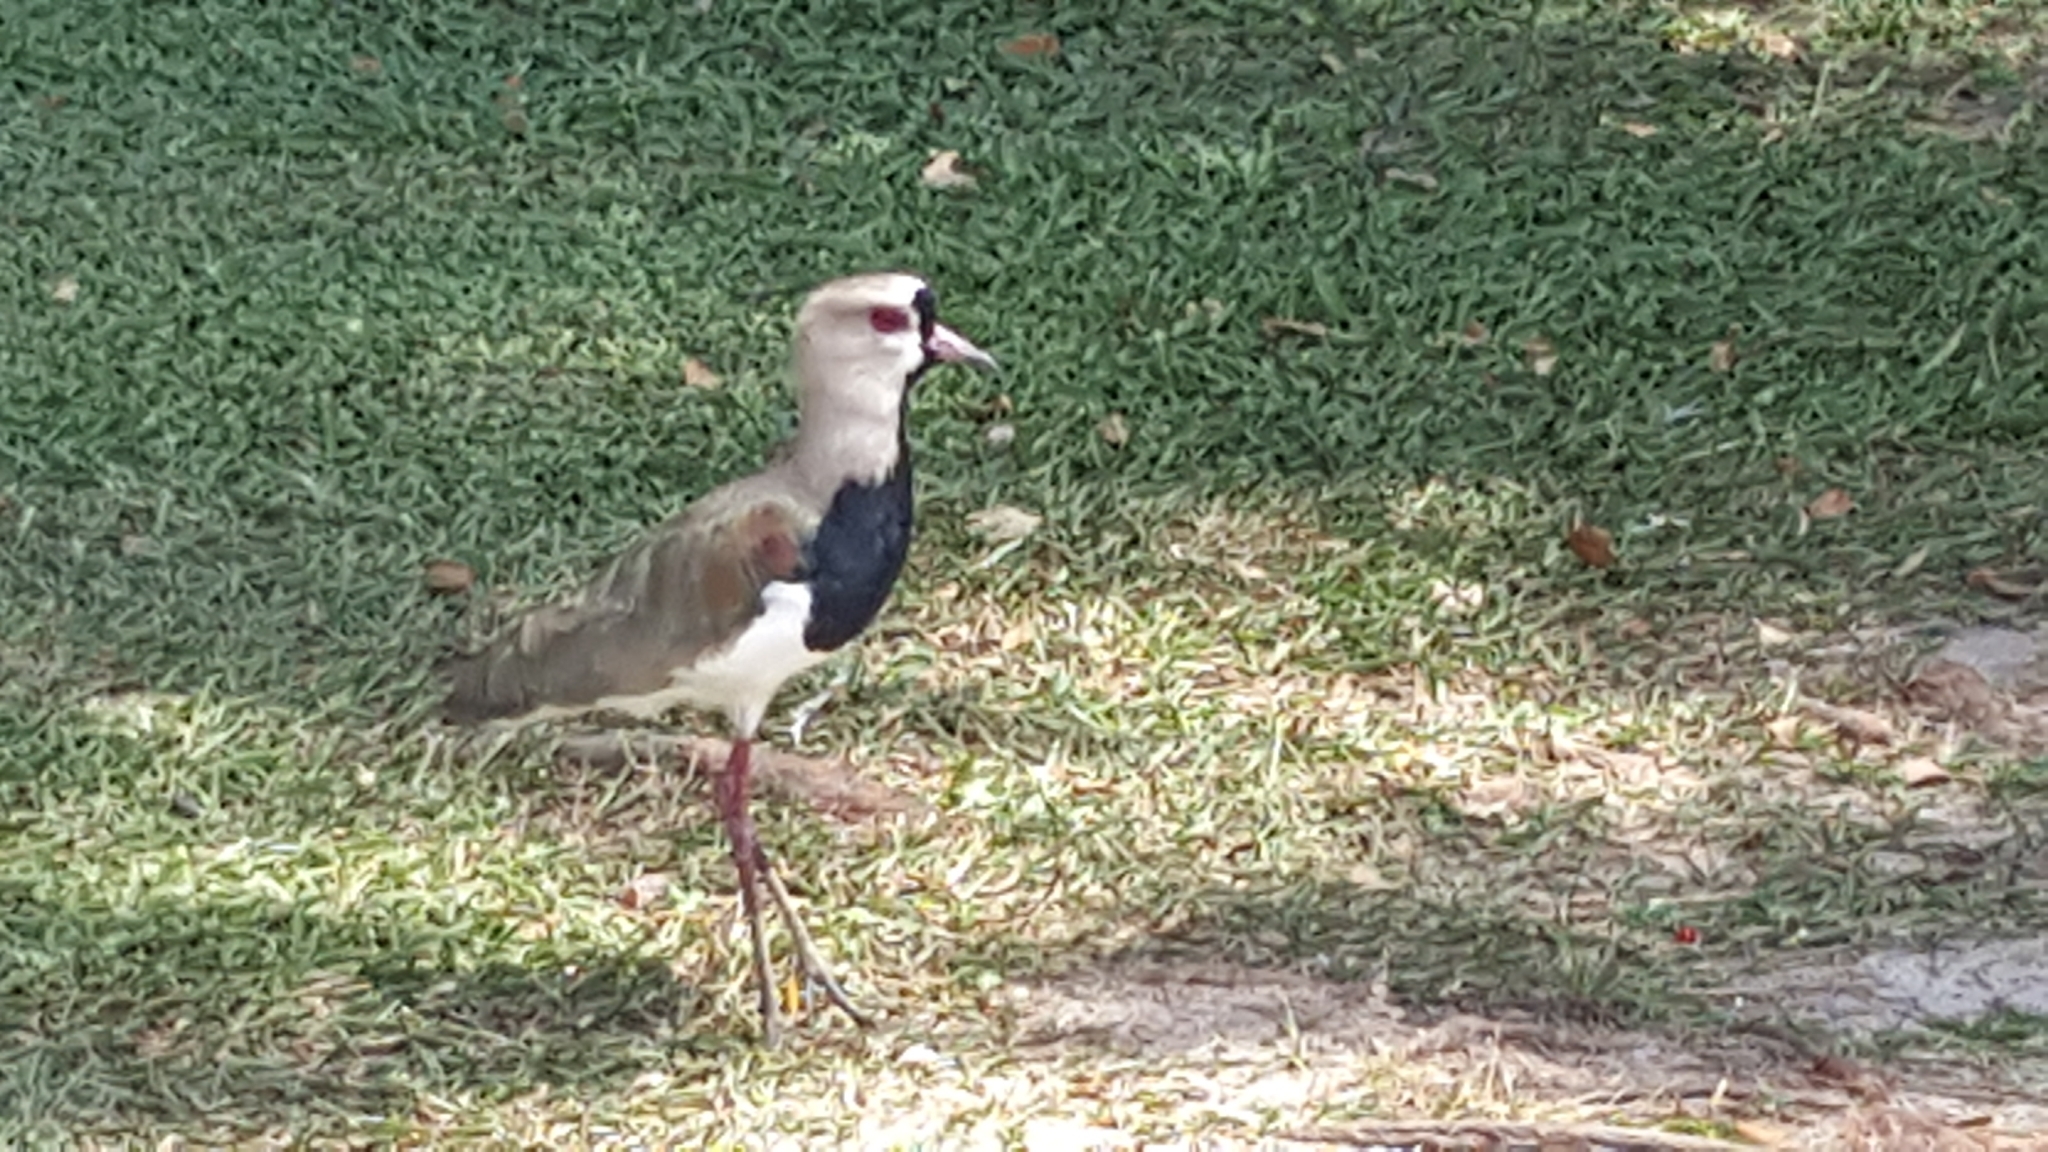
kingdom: Animalia
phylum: Chordata
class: Aves
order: Charadriiformes
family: Charadriidae
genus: Vanellus
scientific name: Vanellus chilensis
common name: Southern lapwing
